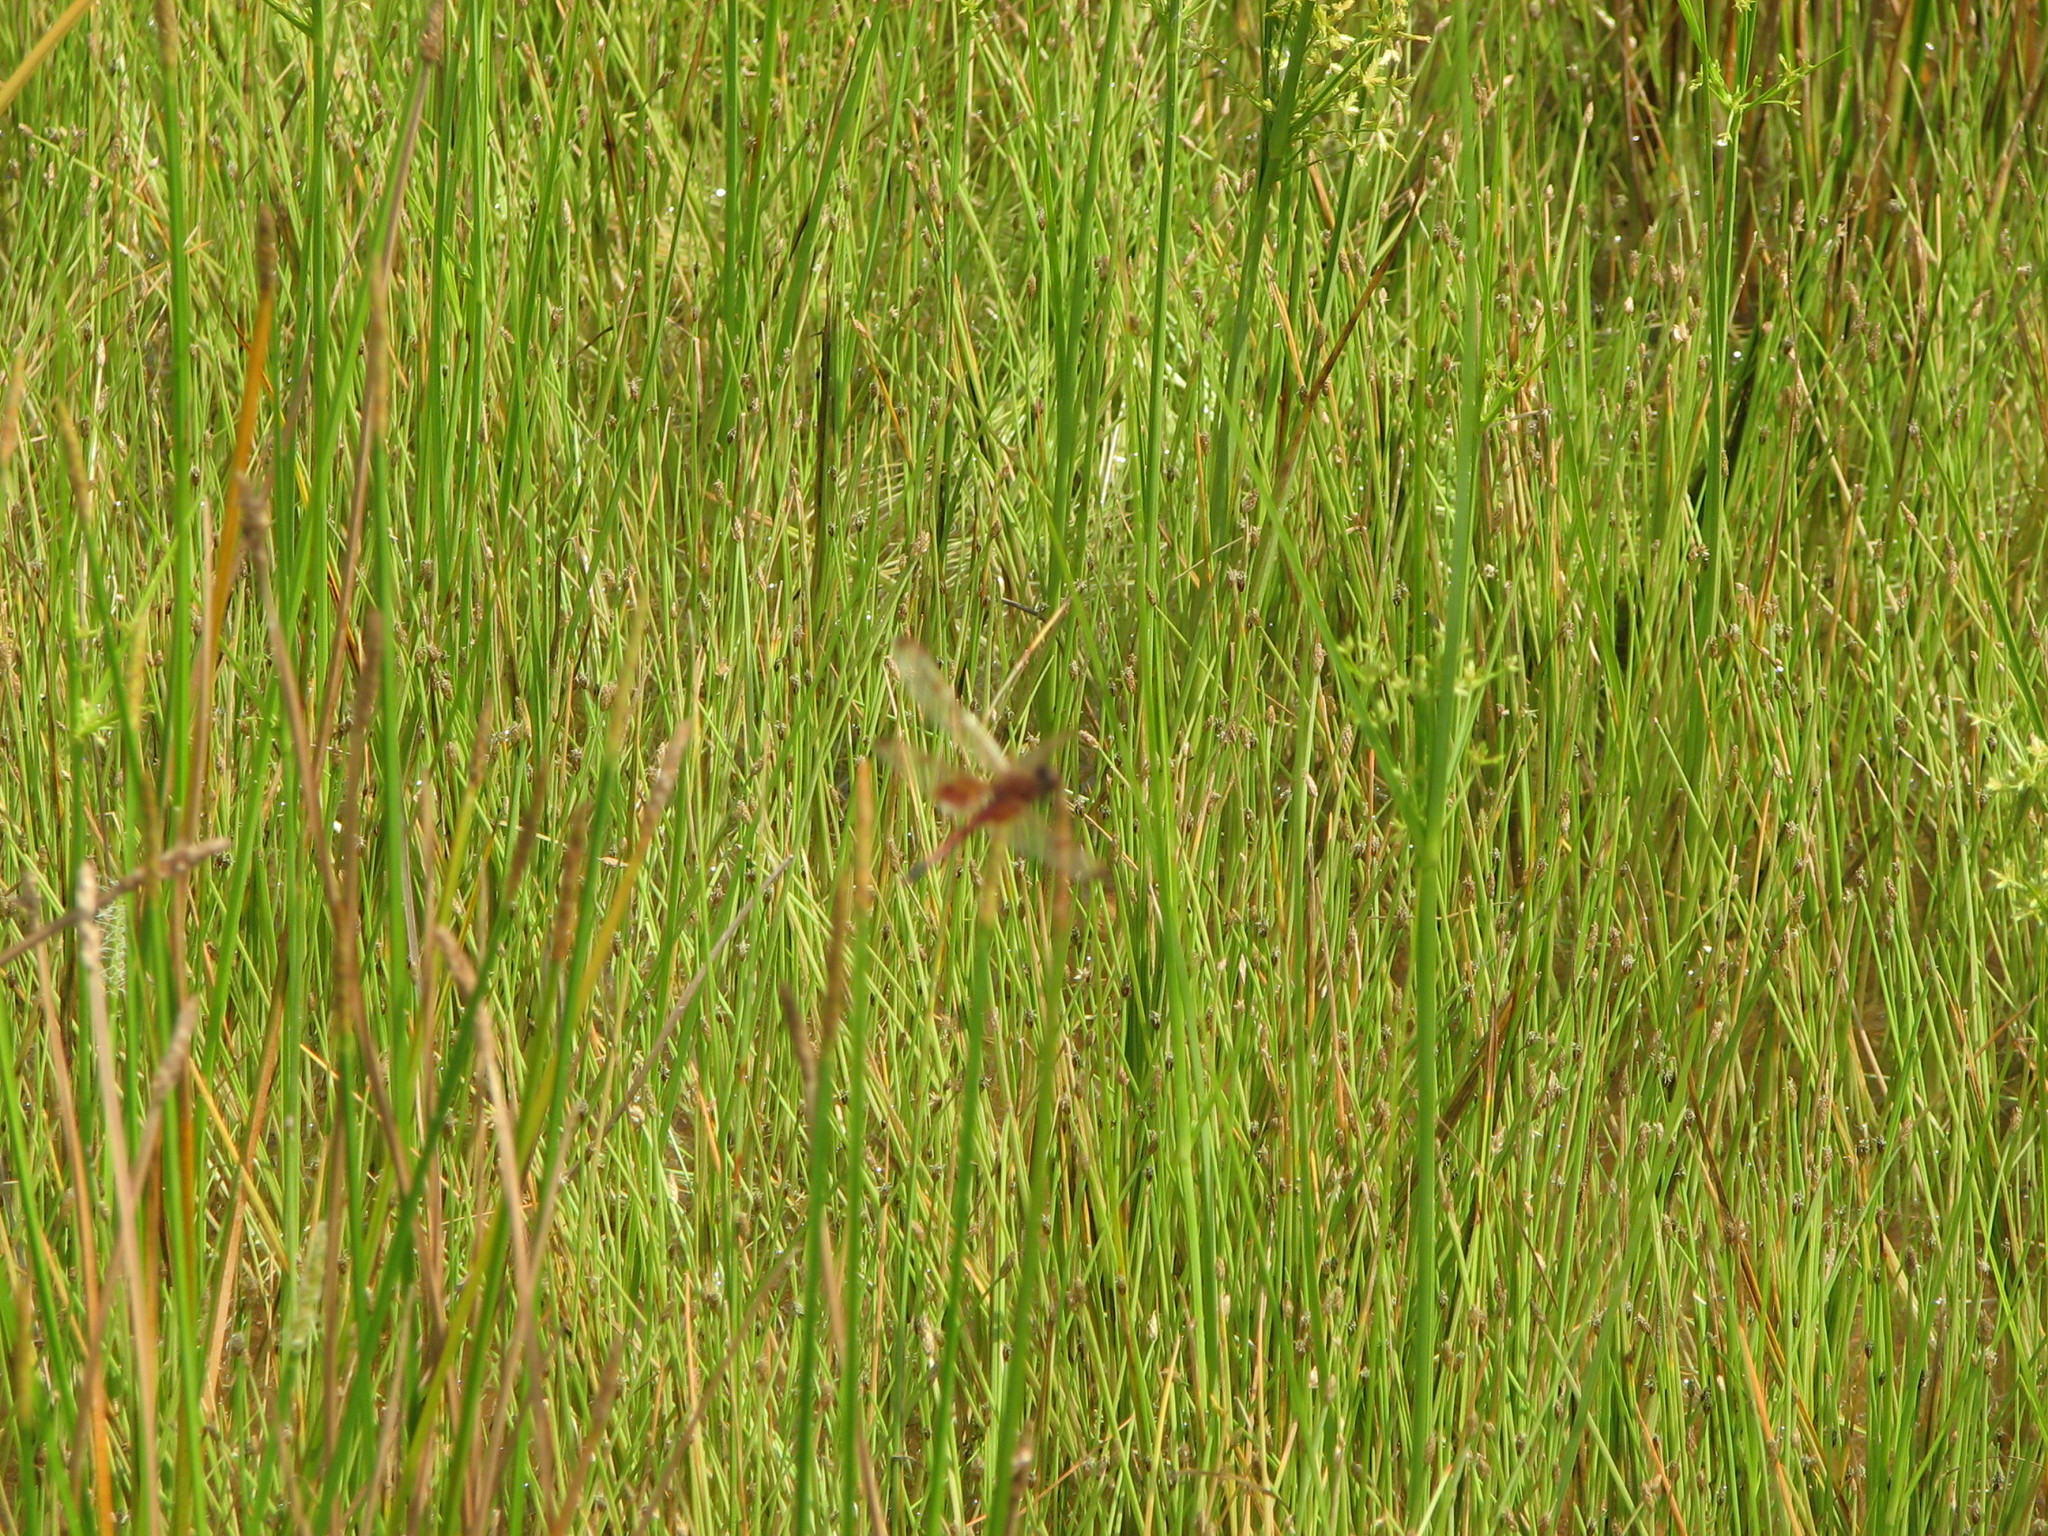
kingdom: Animalia
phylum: Arthropoda
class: Insecta
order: Odonata
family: Libellulidae
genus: Celithemis
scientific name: Celithemis elisa
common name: Calico pennant
